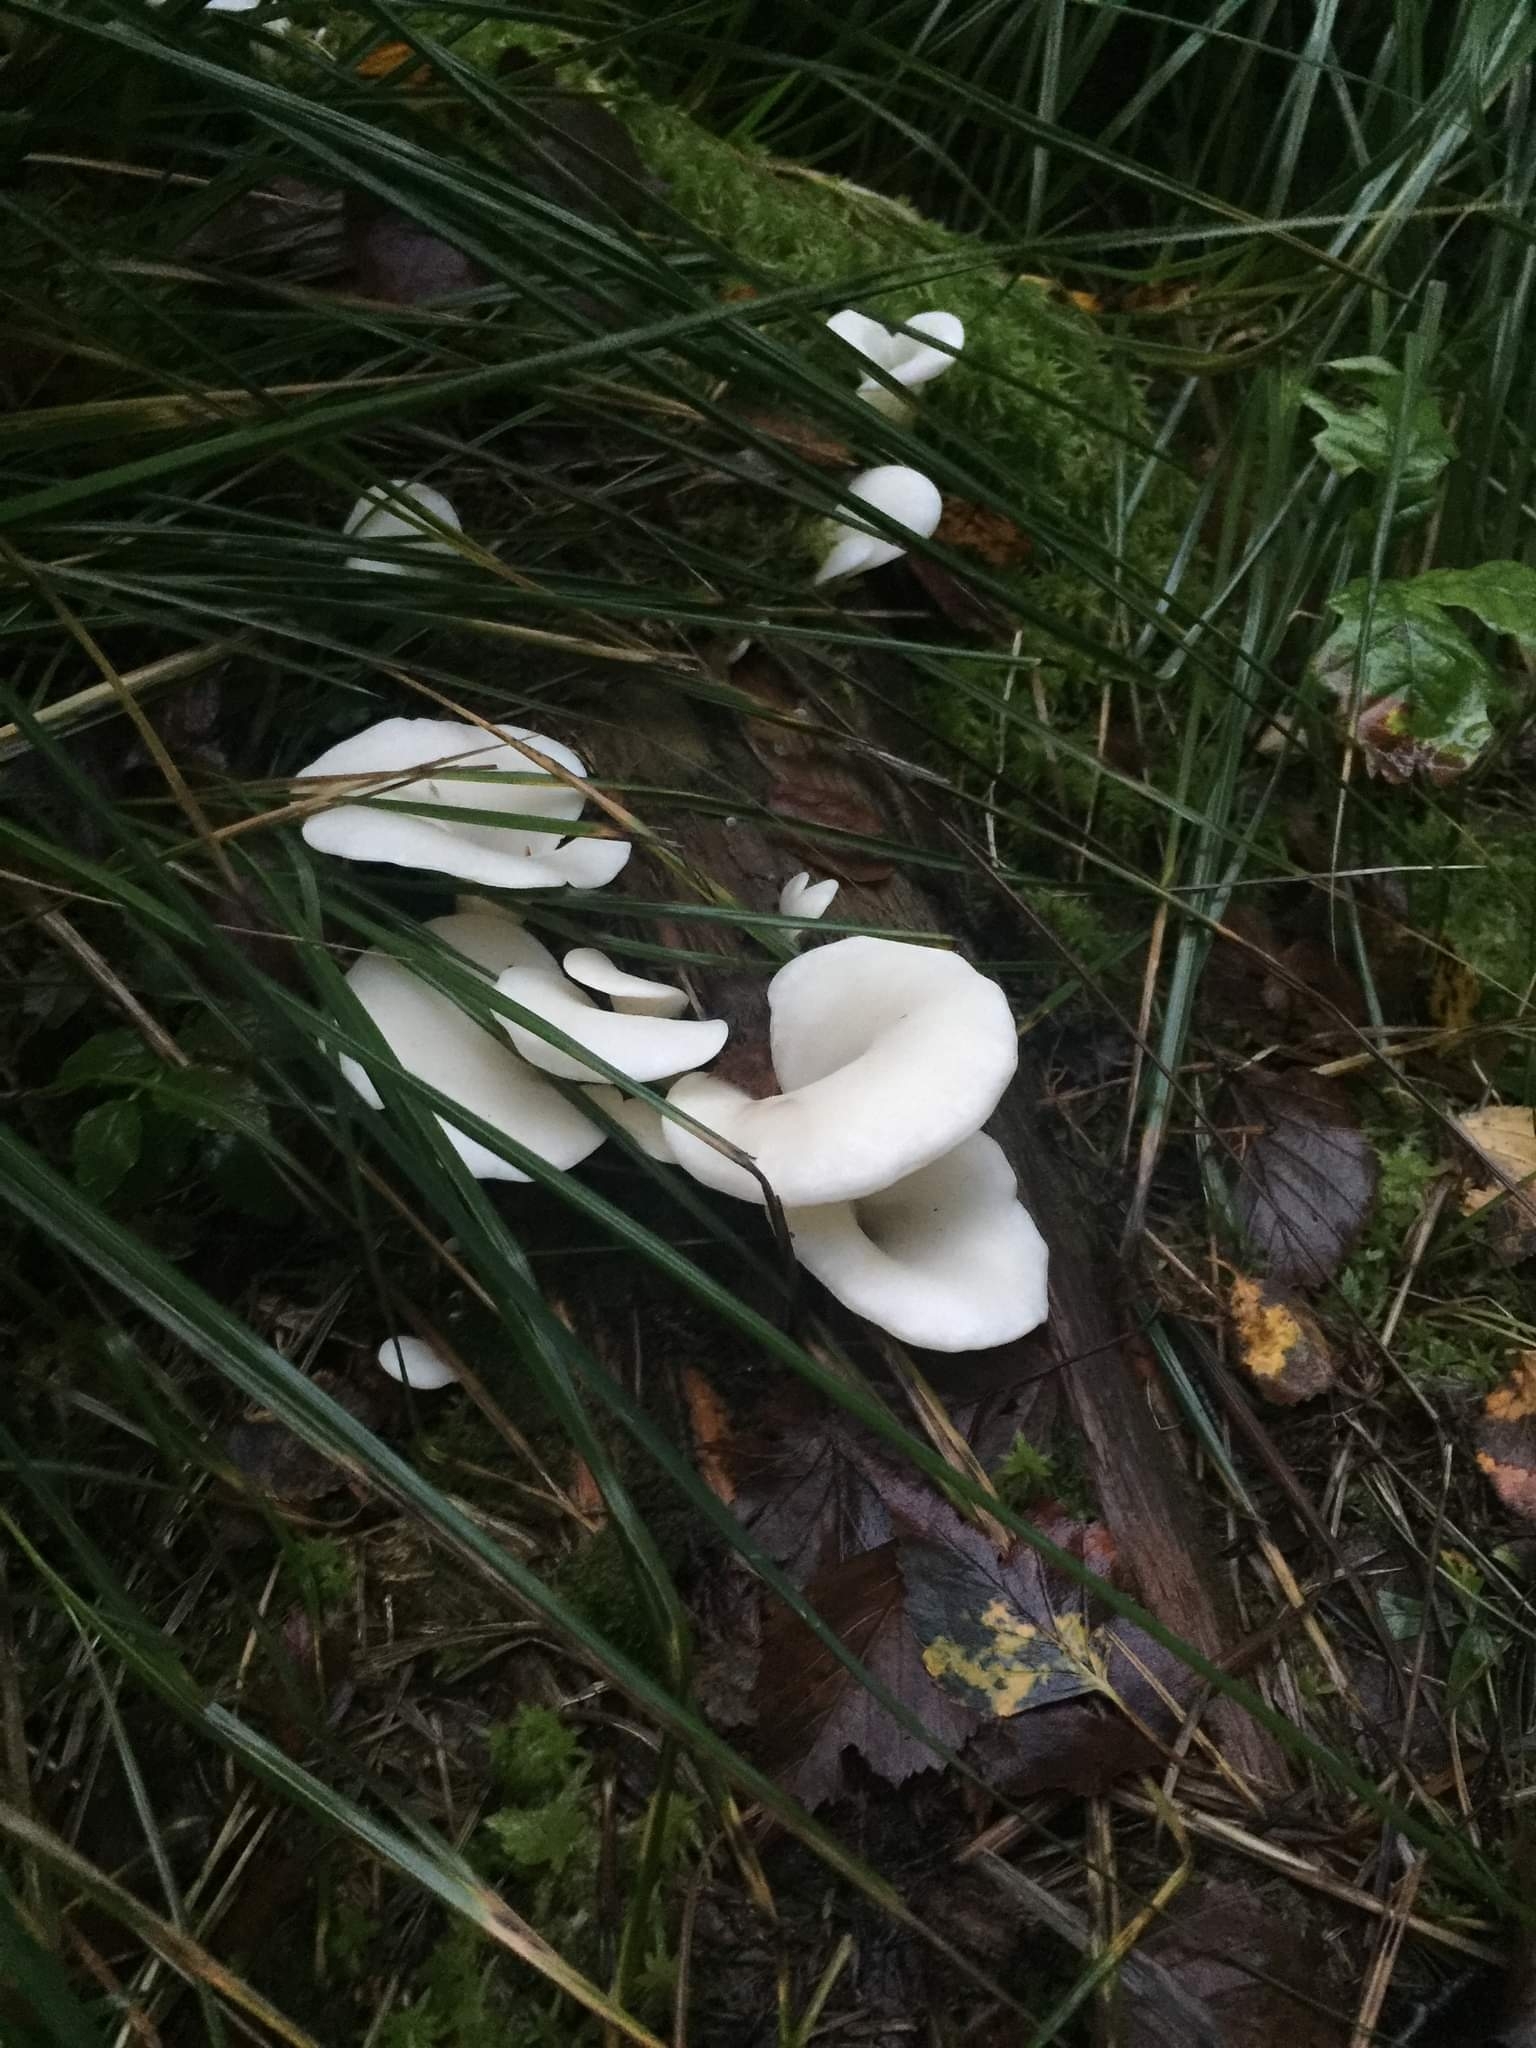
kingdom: Fungi
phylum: Basidiomycota
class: Agaricomycetes
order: Agaricales
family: Marasmiaceae
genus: Pleurocybella
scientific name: Pleurocybella porrigens
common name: Angel's wings
